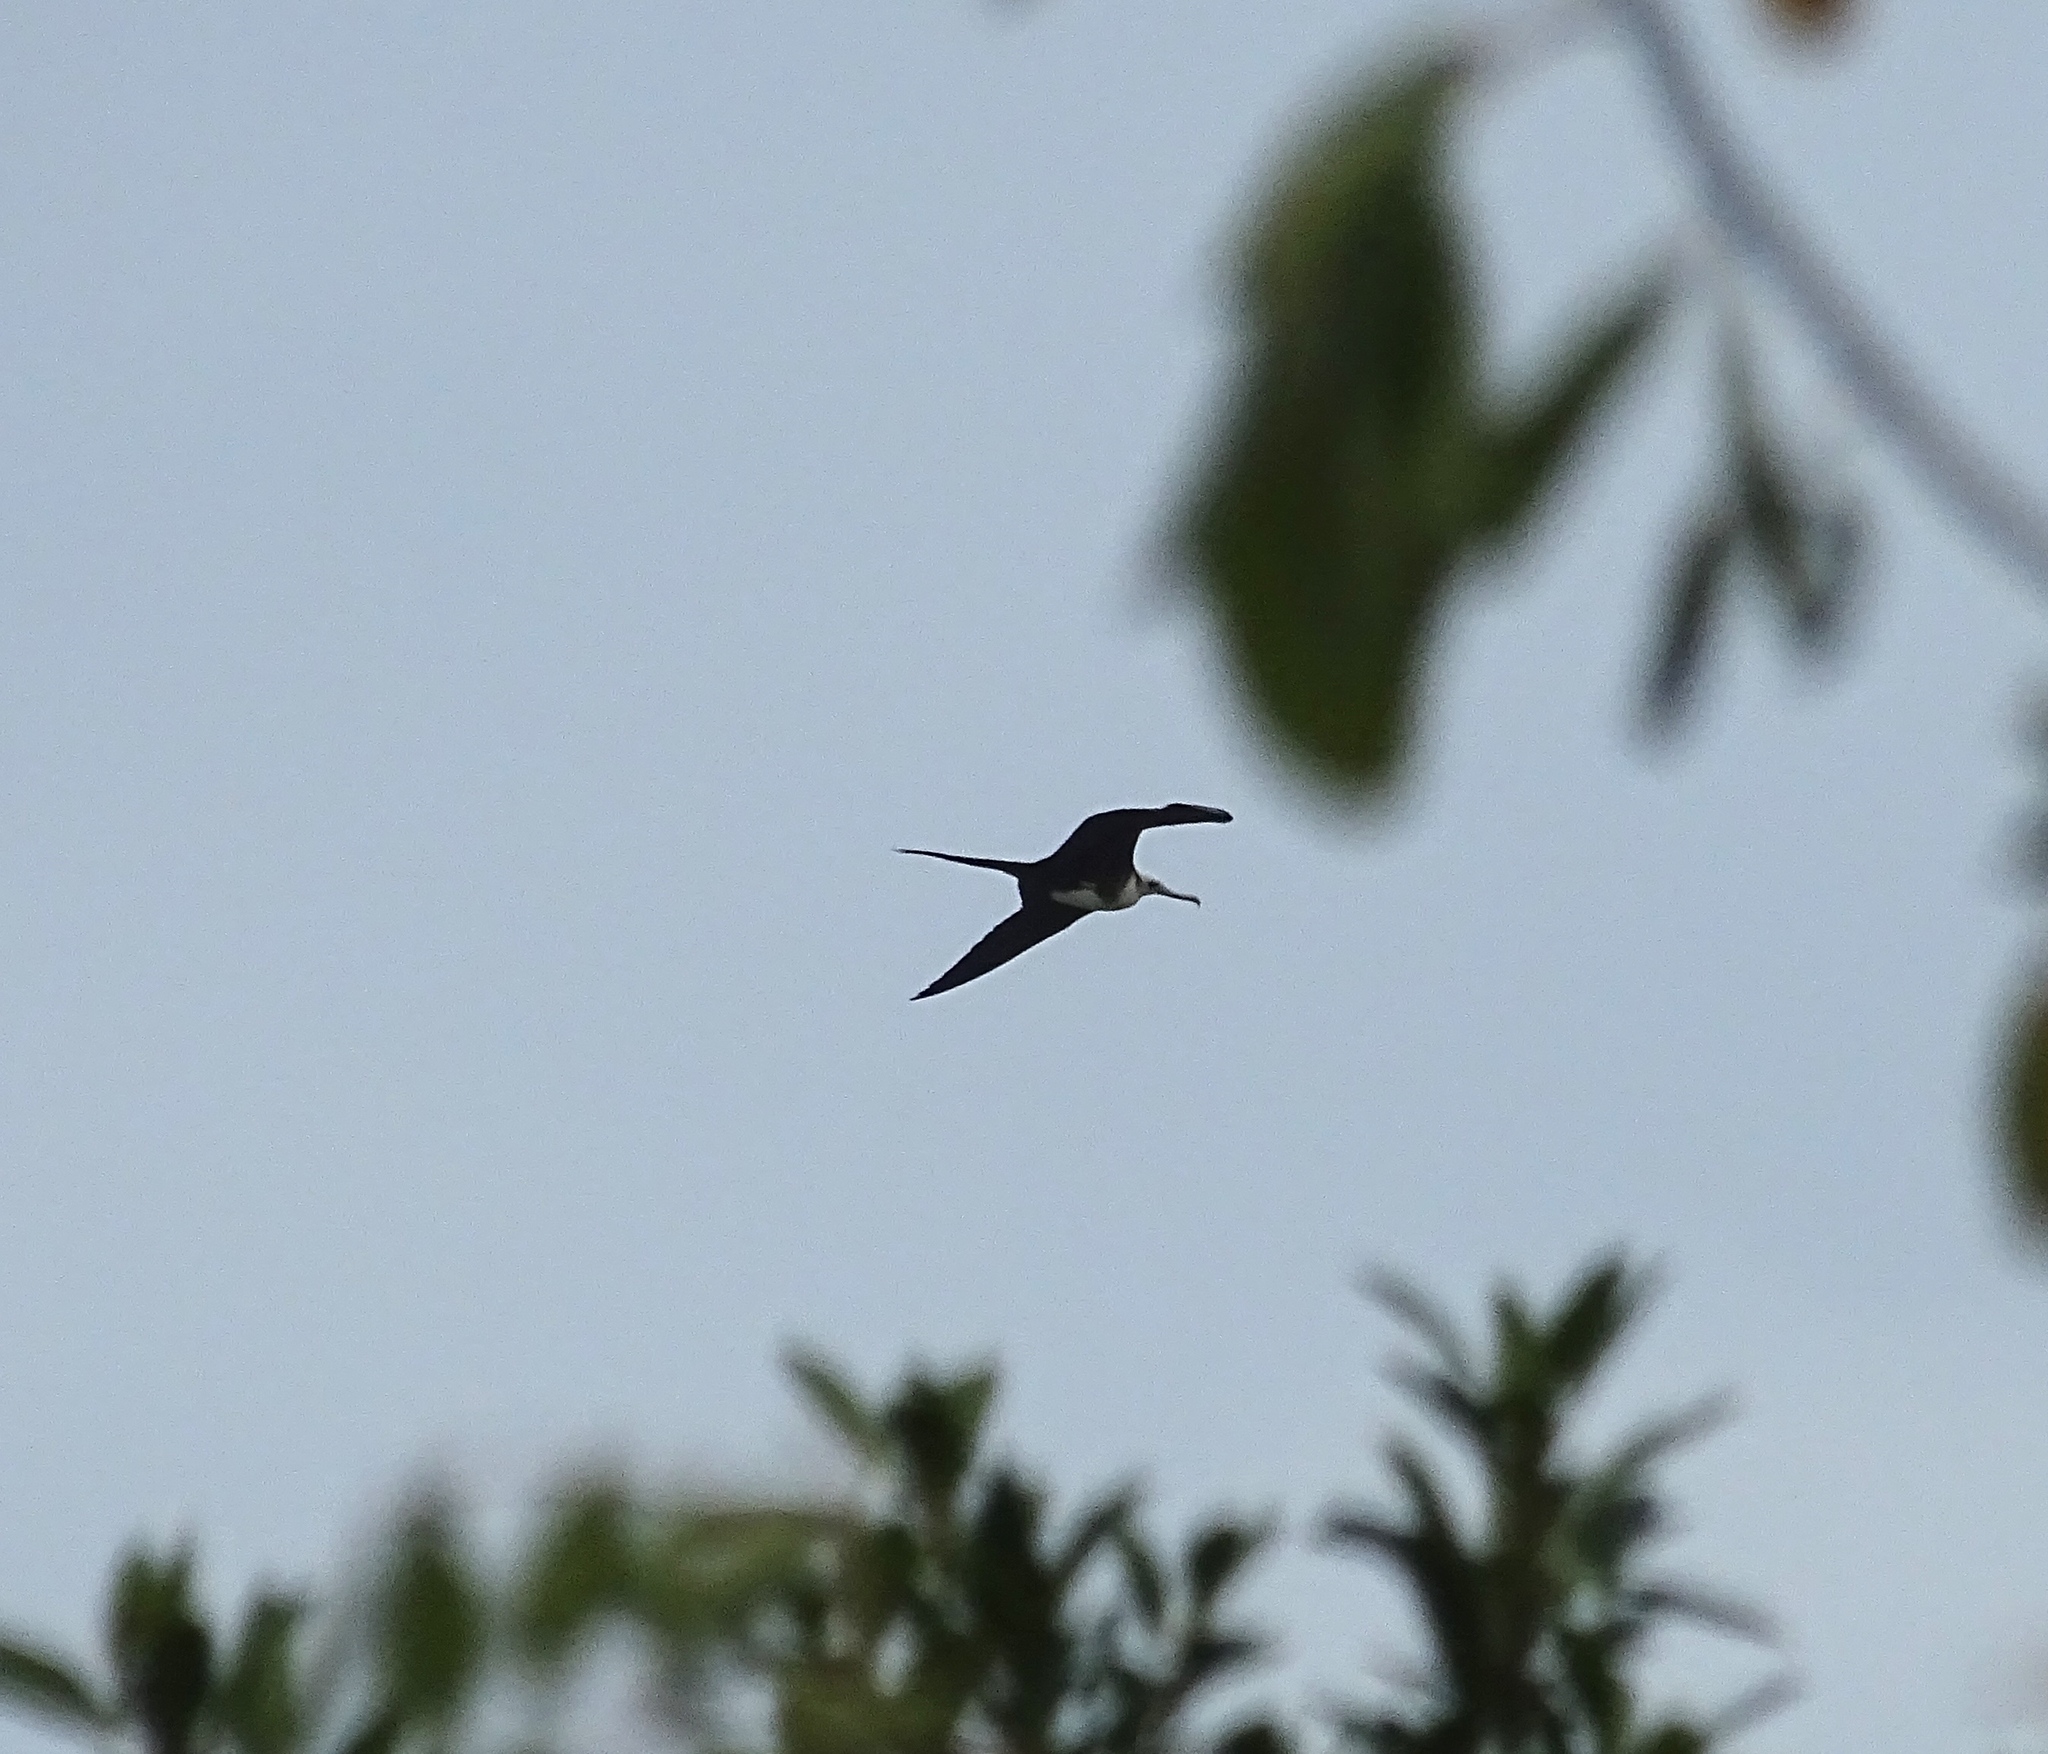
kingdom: Animalia
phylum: Chordata
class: Aves
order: Suliformes
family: Fregatidae
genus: Fregata
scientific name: Fregata magnificens
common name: Magnificent frigatebird
